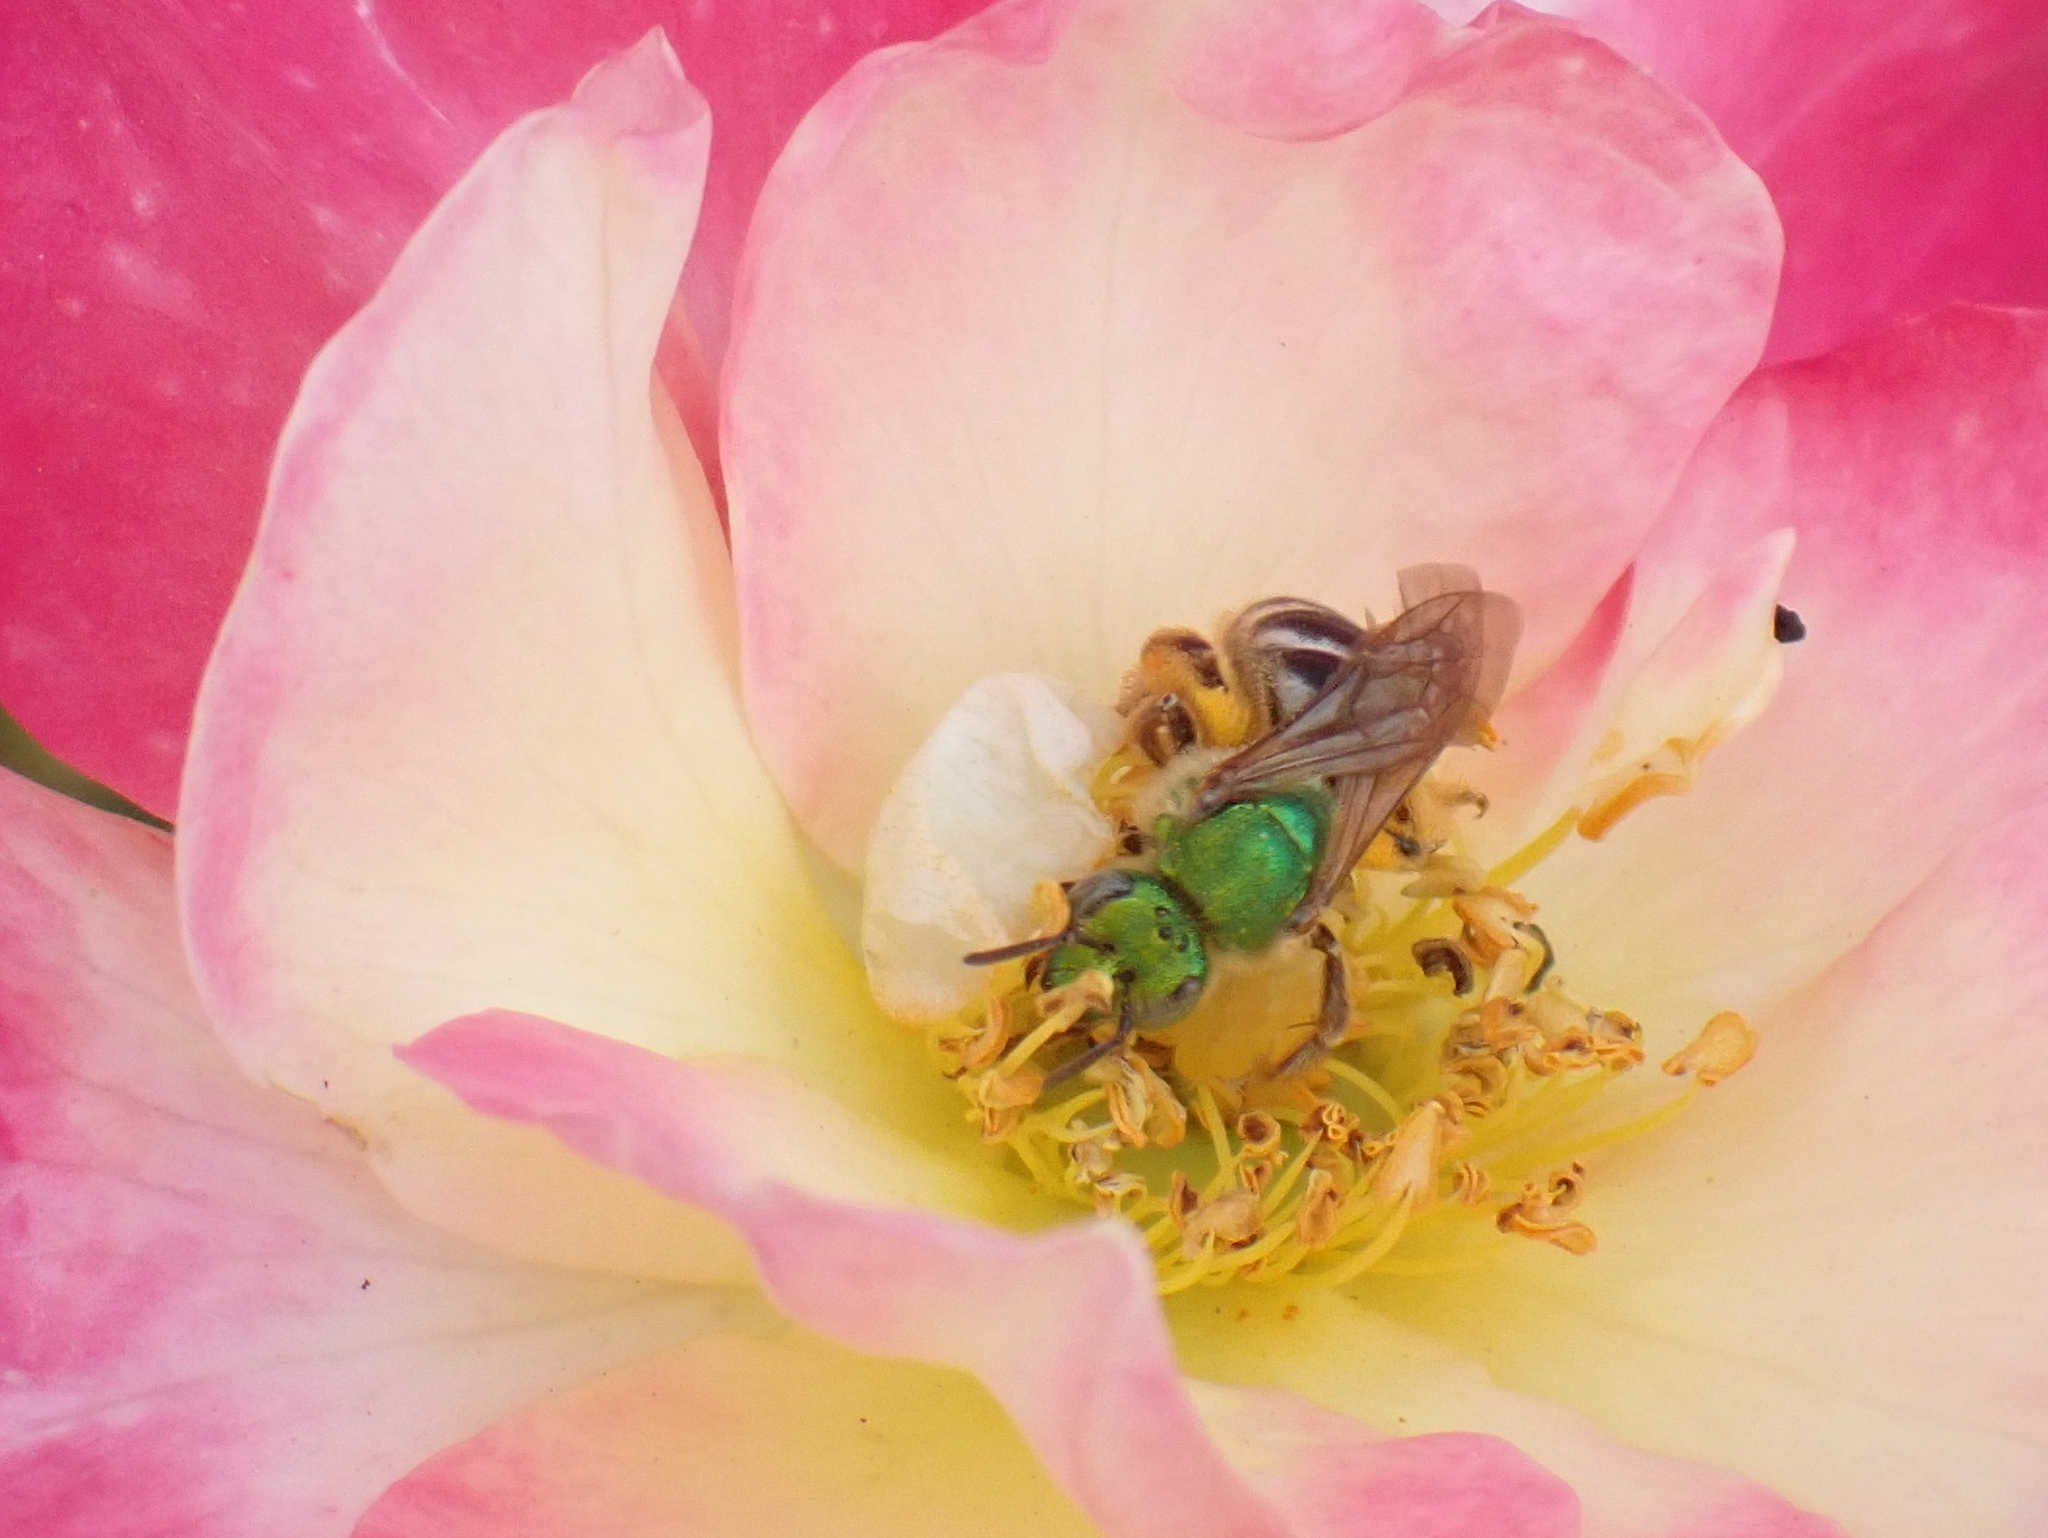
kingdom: Animalia
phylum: Arthropoda
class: Insecta
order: Hymenoptera
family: Halictidae
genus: Agapostemon
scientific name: Agapostemon virescens
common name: Bicolored striped sweat bee
